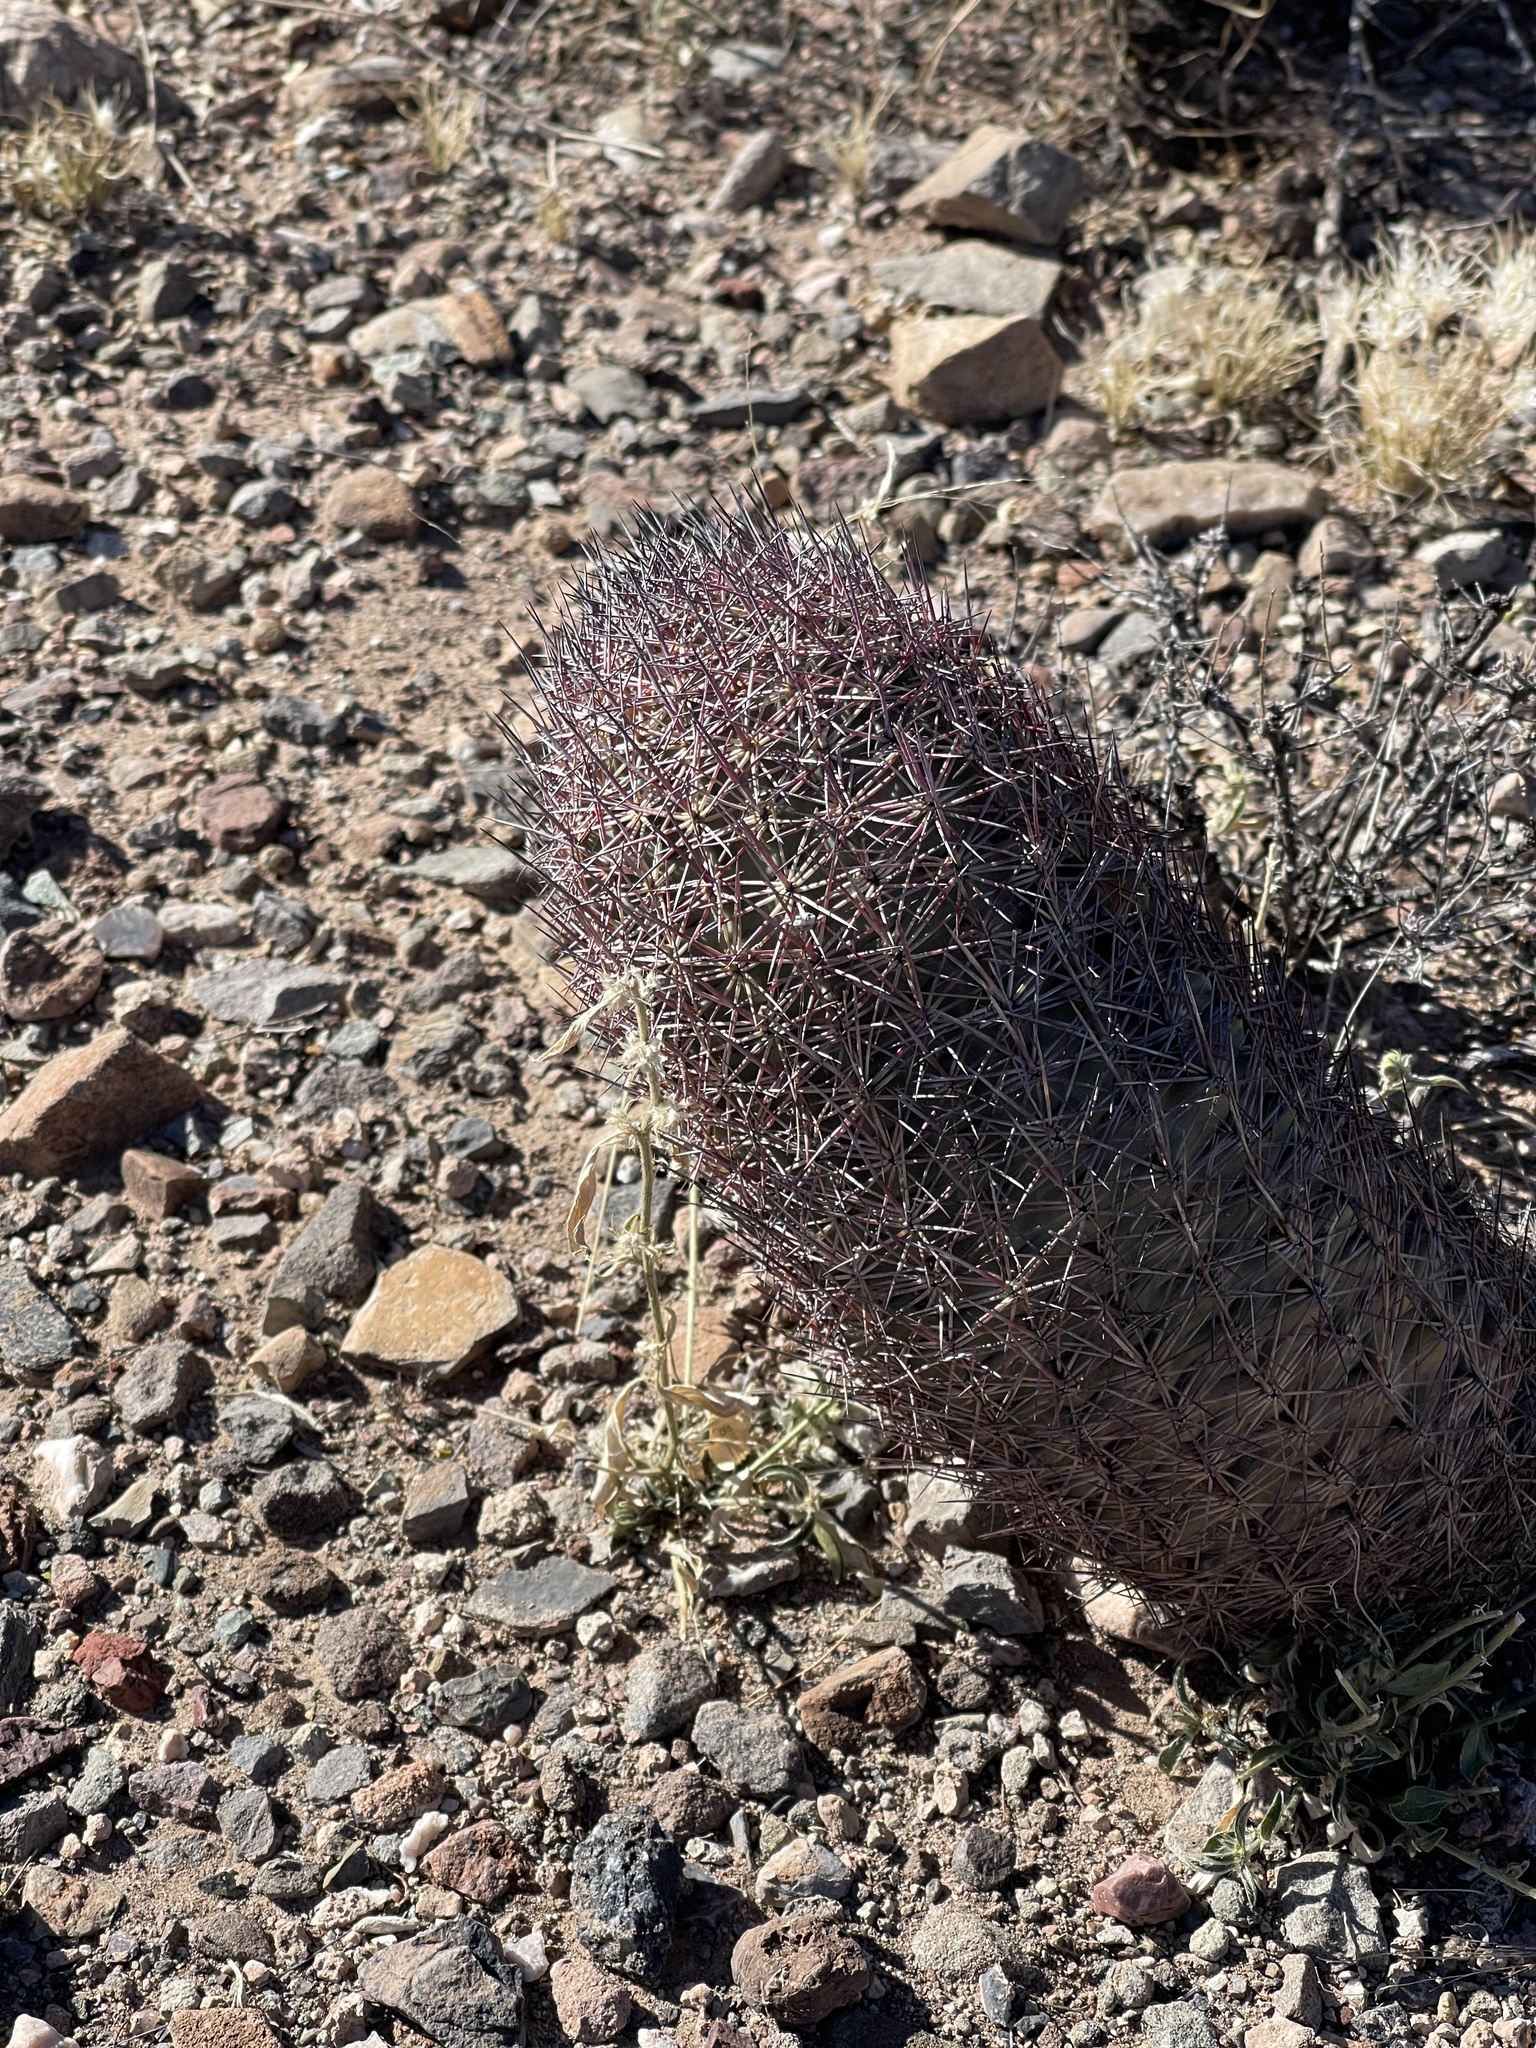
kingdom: Plantae
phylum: Tracheophyta
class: Magnoliopsida
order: Caryophyllales
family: Cactaceae
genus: Sclerocactus
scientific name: Sclerocactus johnsonii
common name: Eight-spine fishhook cactus
